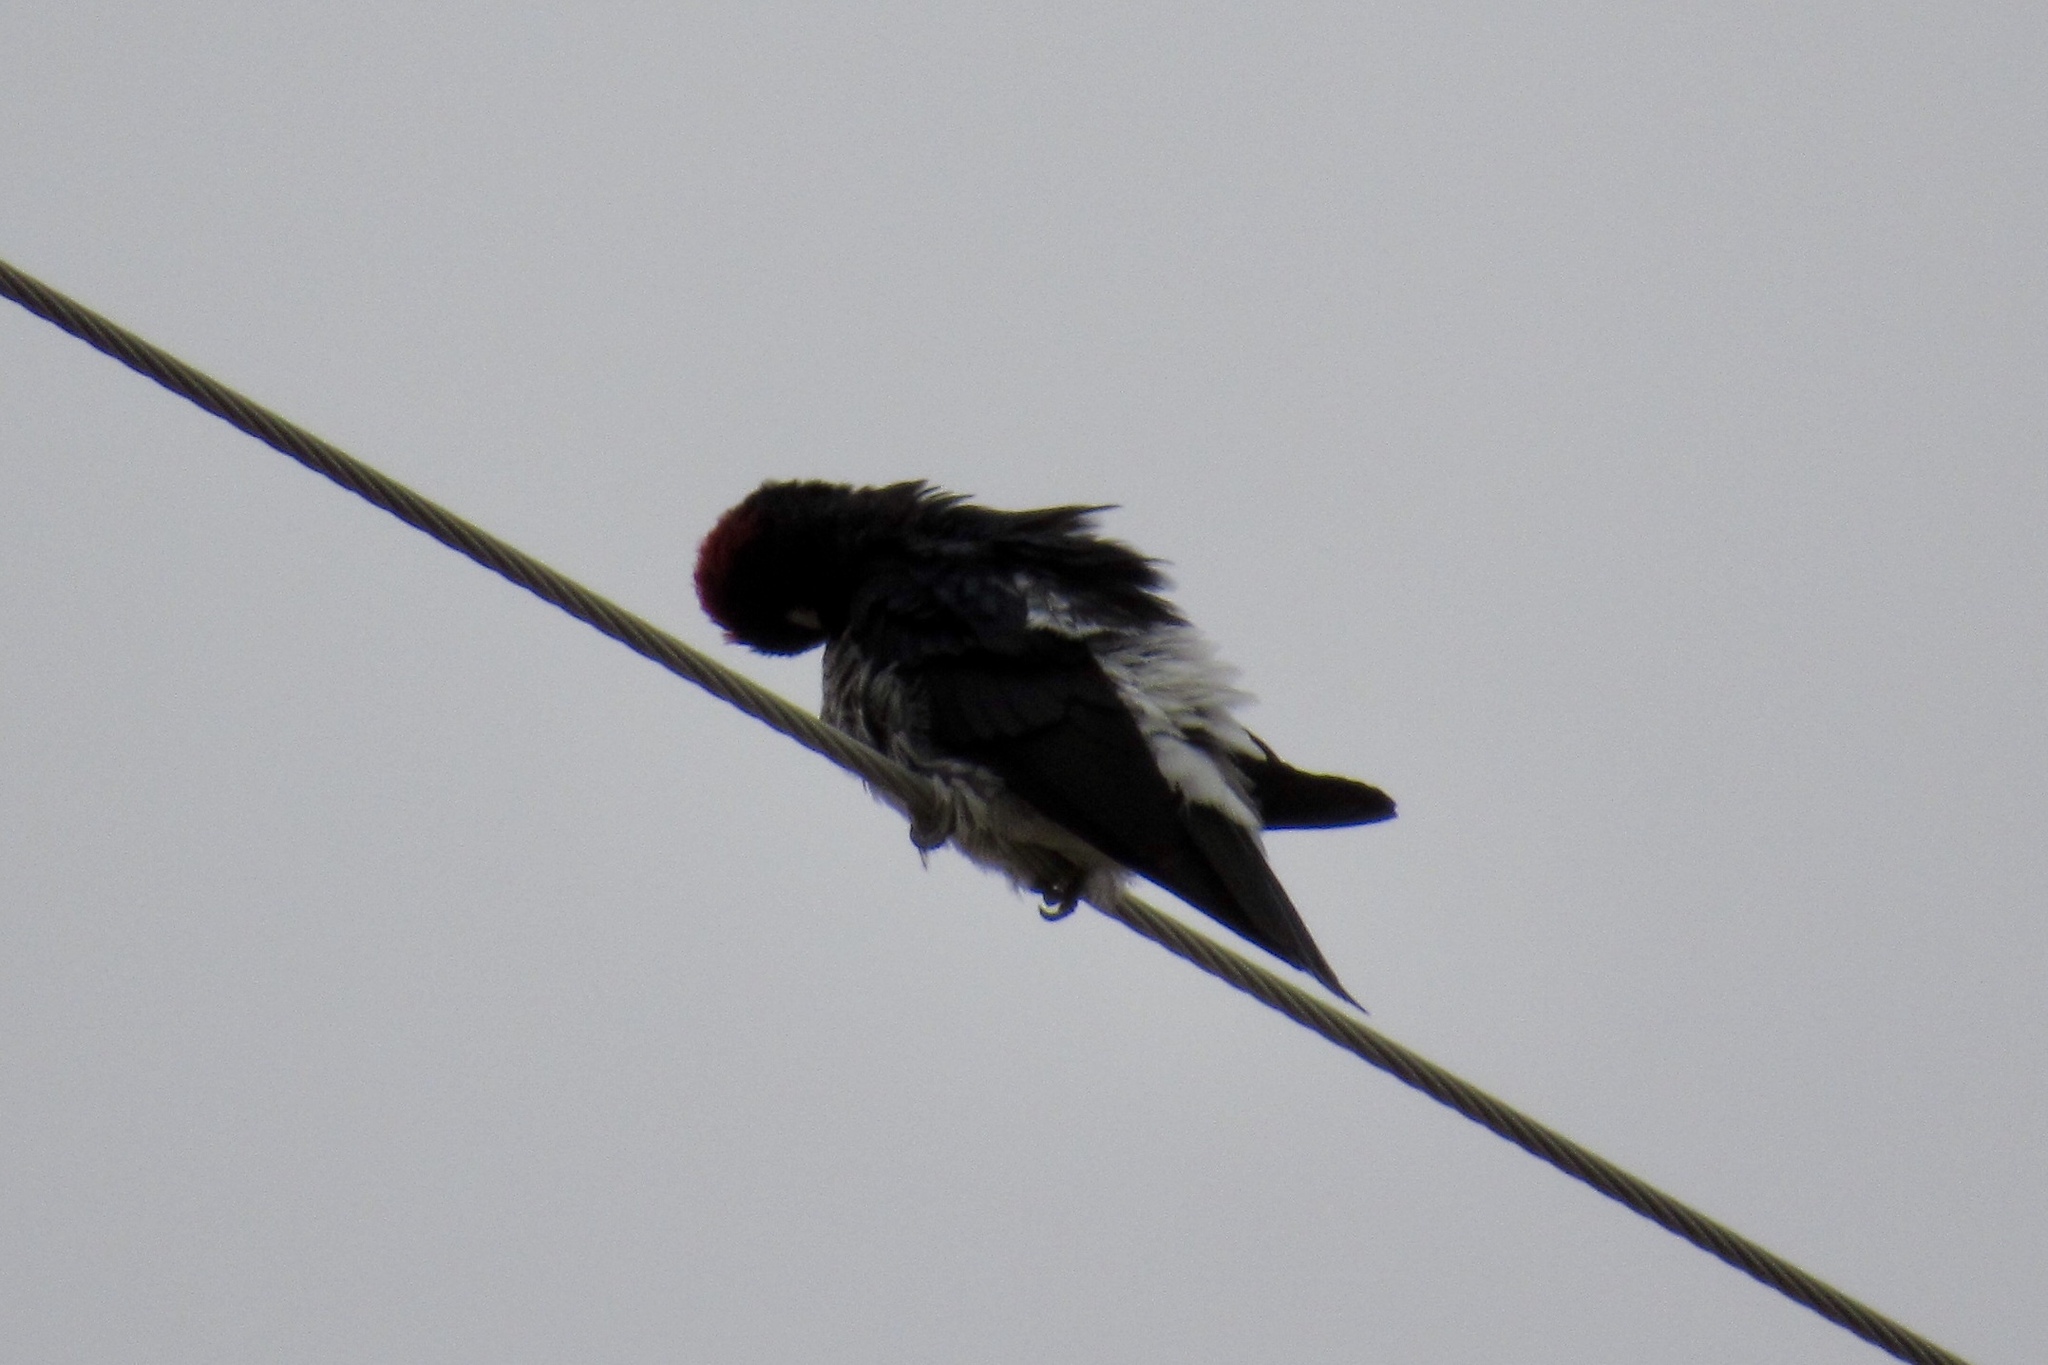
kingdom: Animalia
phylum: Chordata
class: Aves
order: Piciformes
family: Picidae
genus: Melanerpes
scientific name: Melanerpes formicivorus
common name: Acorn woodpecker
